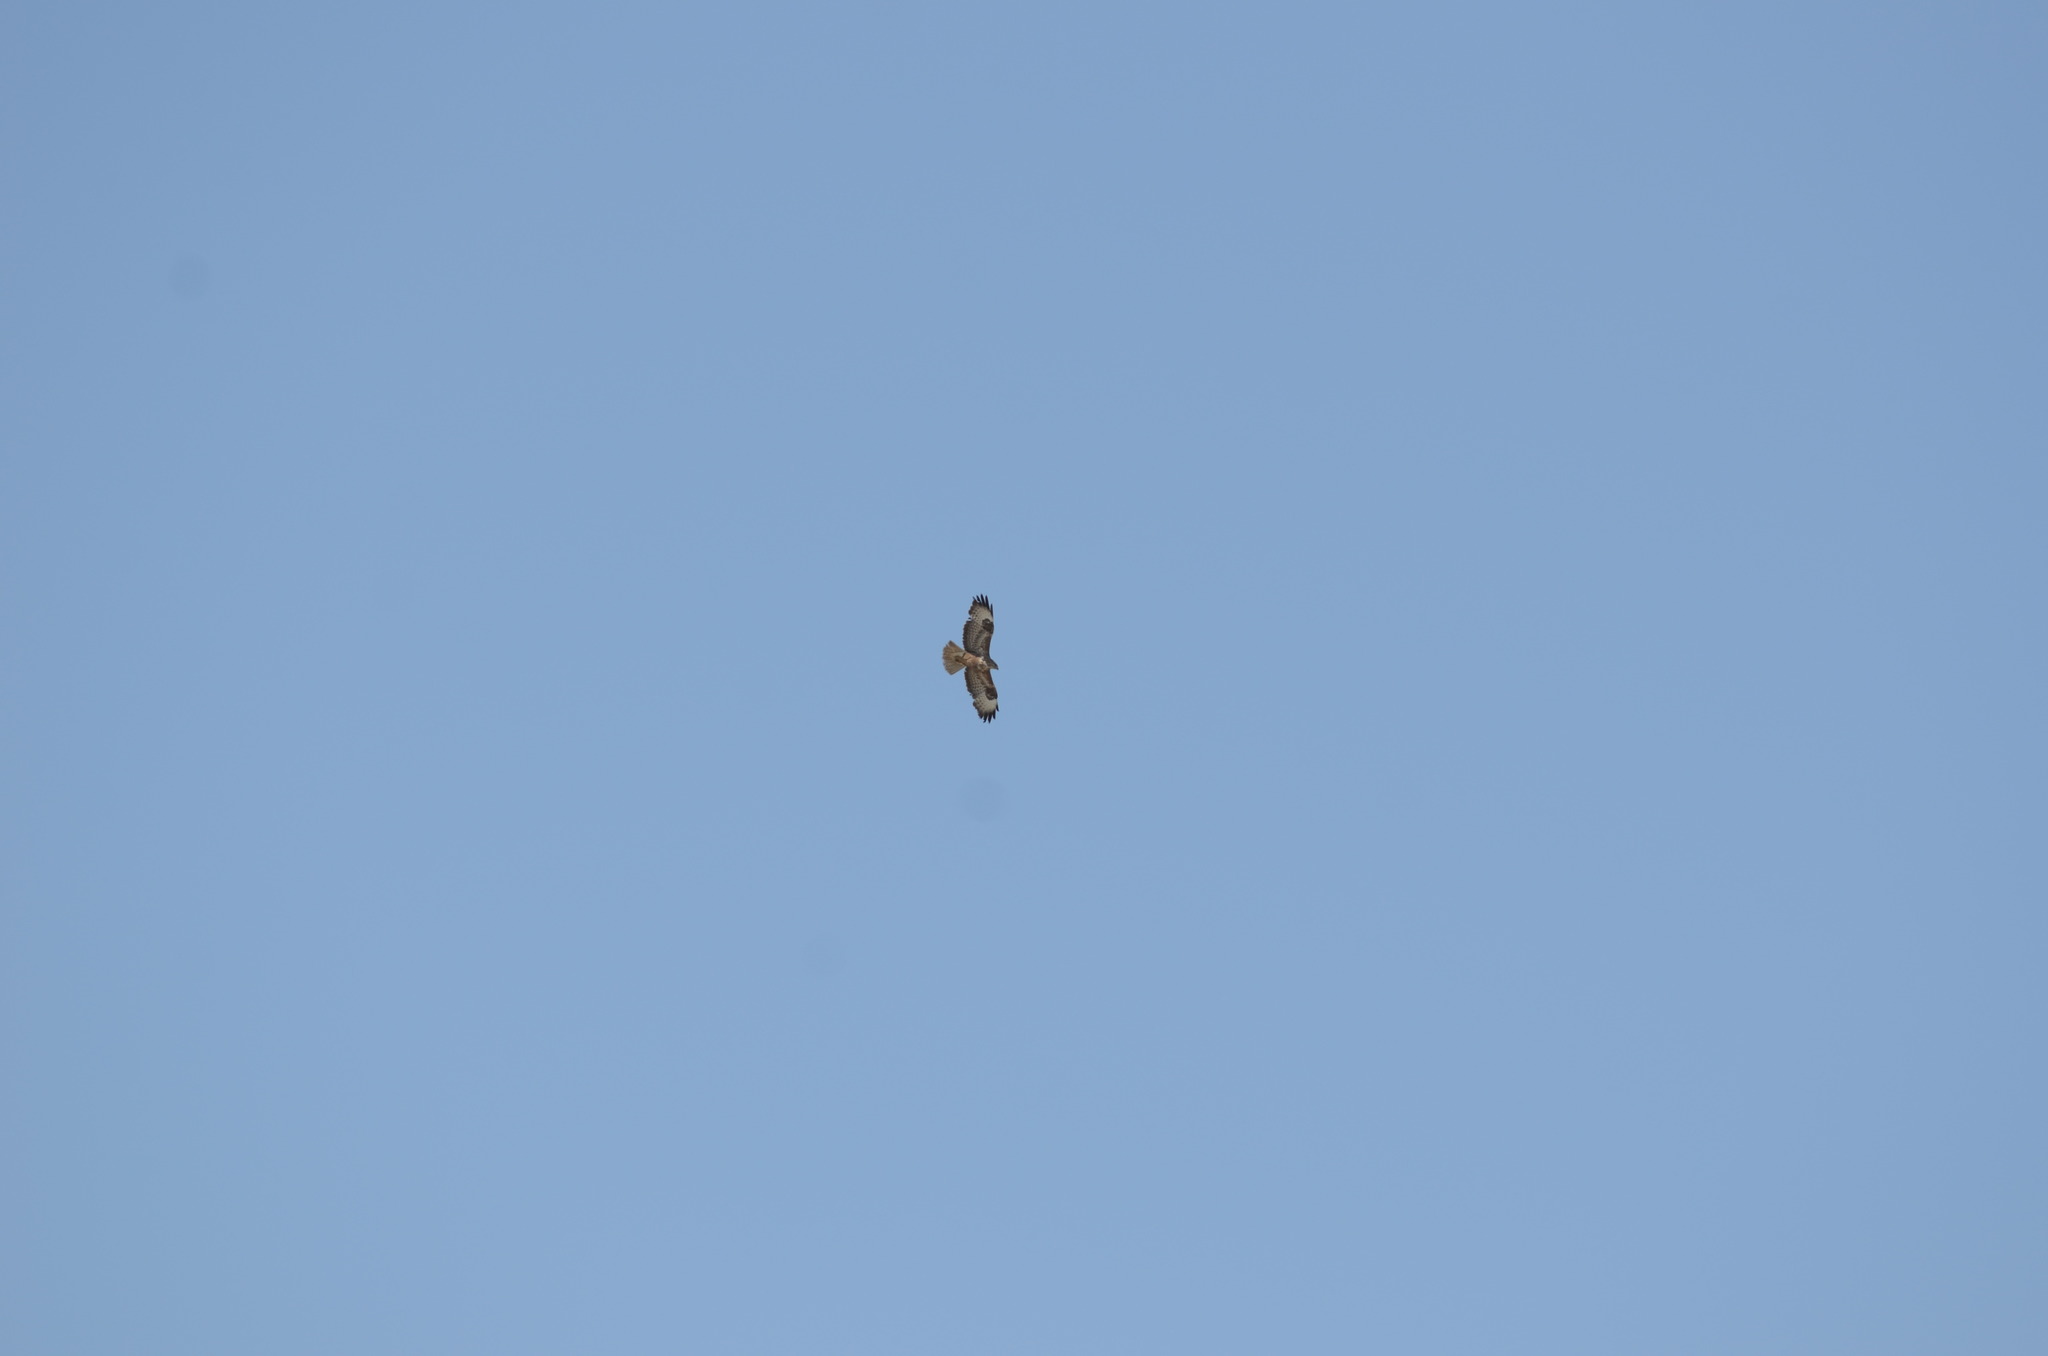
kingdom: Animalia
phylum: Chordata
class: Aves
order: Accipitriformes
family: Accipitridae
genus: Buteo
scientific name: Buteo buteo
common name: Common buzzard
